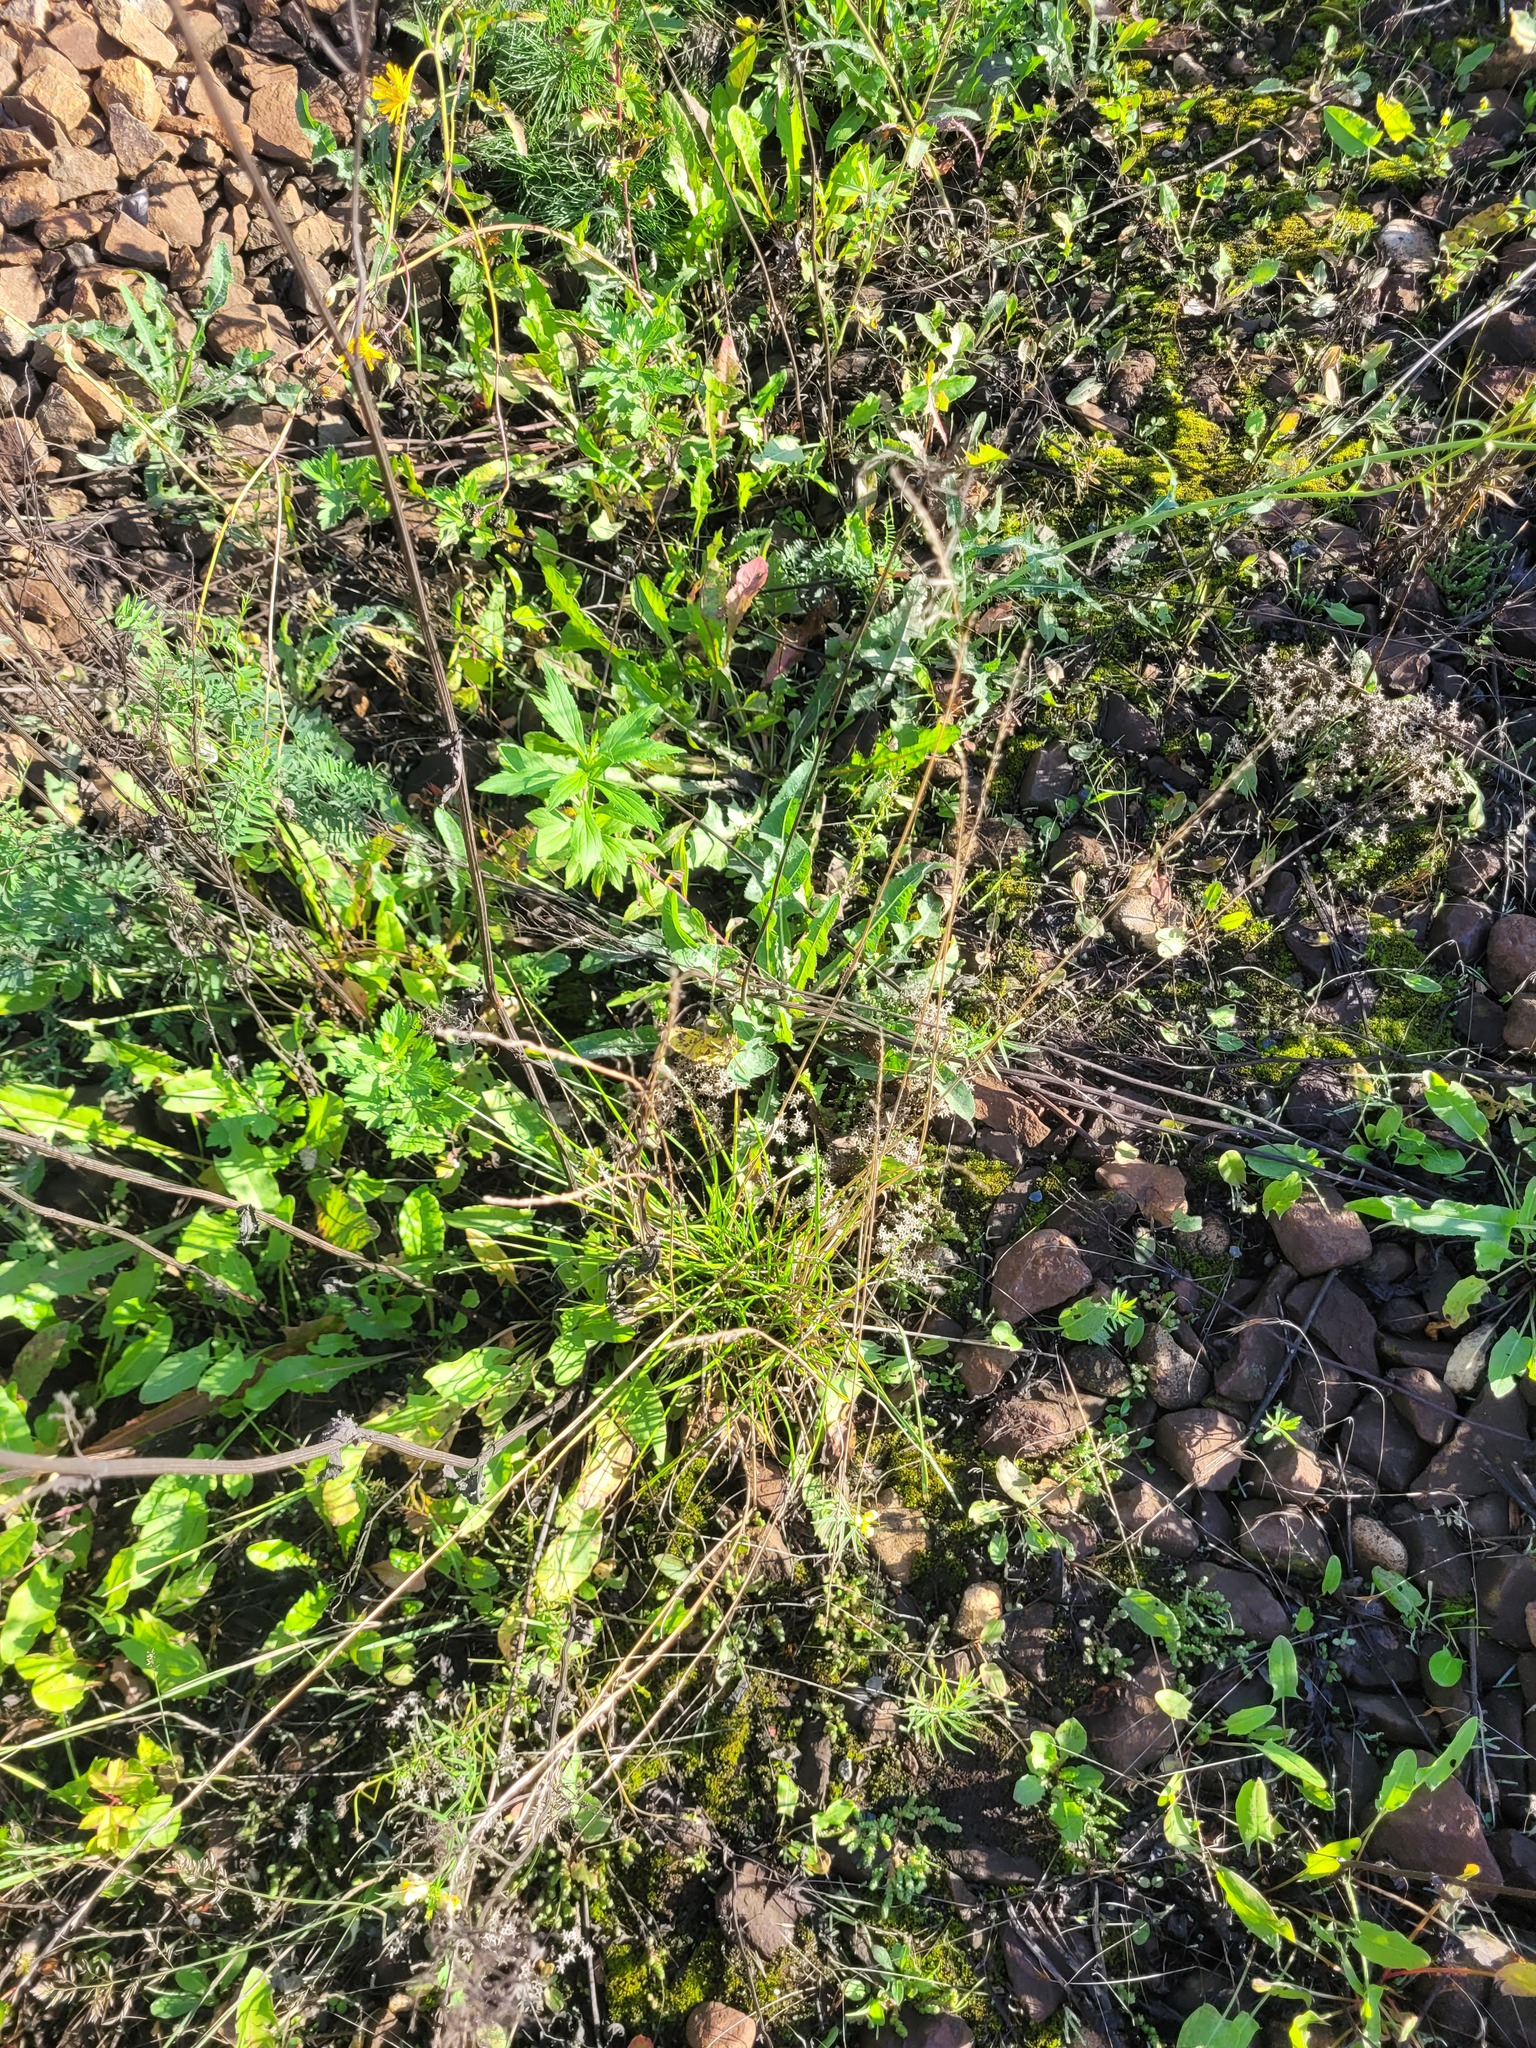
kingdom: Plantae
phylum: Tracheophyta
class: Liliopsida
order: Poales
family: Poaceae
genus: Lolium
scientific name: Lolium pratense
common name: Dover grass
